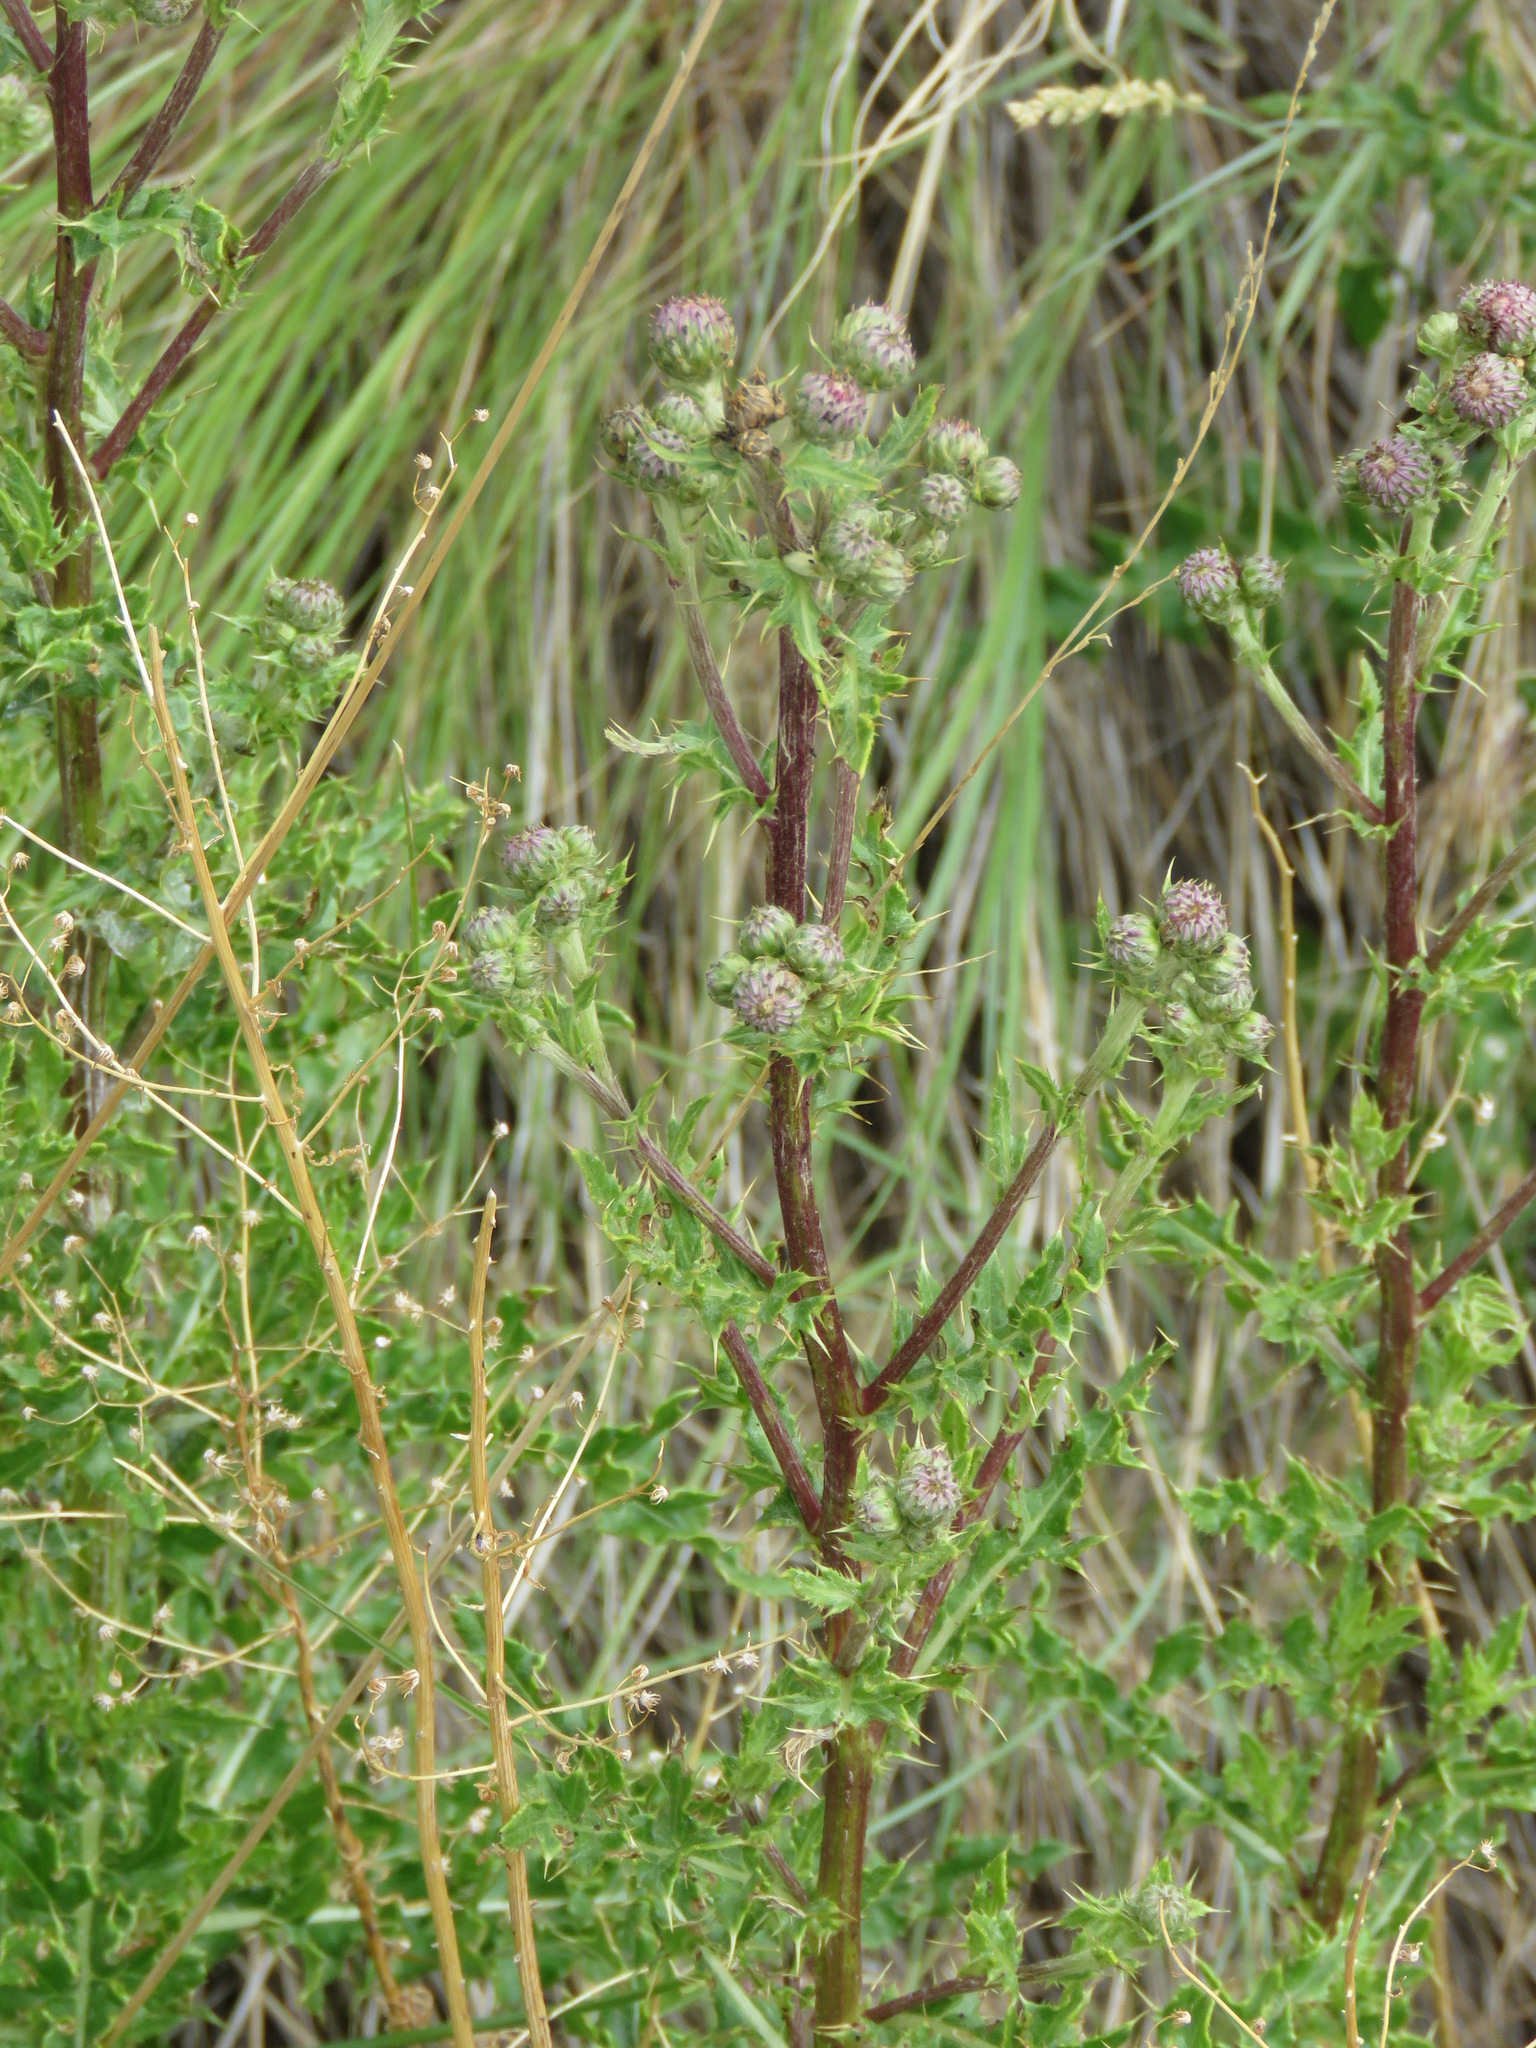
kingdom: Plantae
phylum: Tracheophyta
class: Magnoliopsida
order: Asterales
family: Asteraceae
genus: Cirsium
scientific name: Cirsium arvense
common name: Creeping thistle
